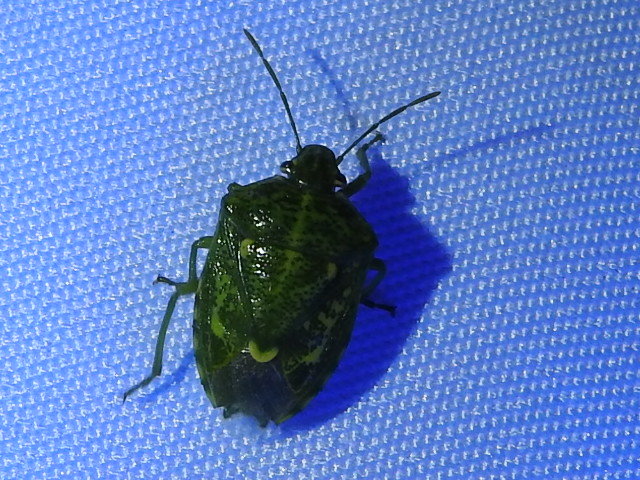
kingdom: Animalia
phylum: Arthropoda
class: Insecta
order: Hemiptera
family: Pentatomidae
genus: Banasa
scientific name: Banasa euchlora
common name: Cedar berry bug
